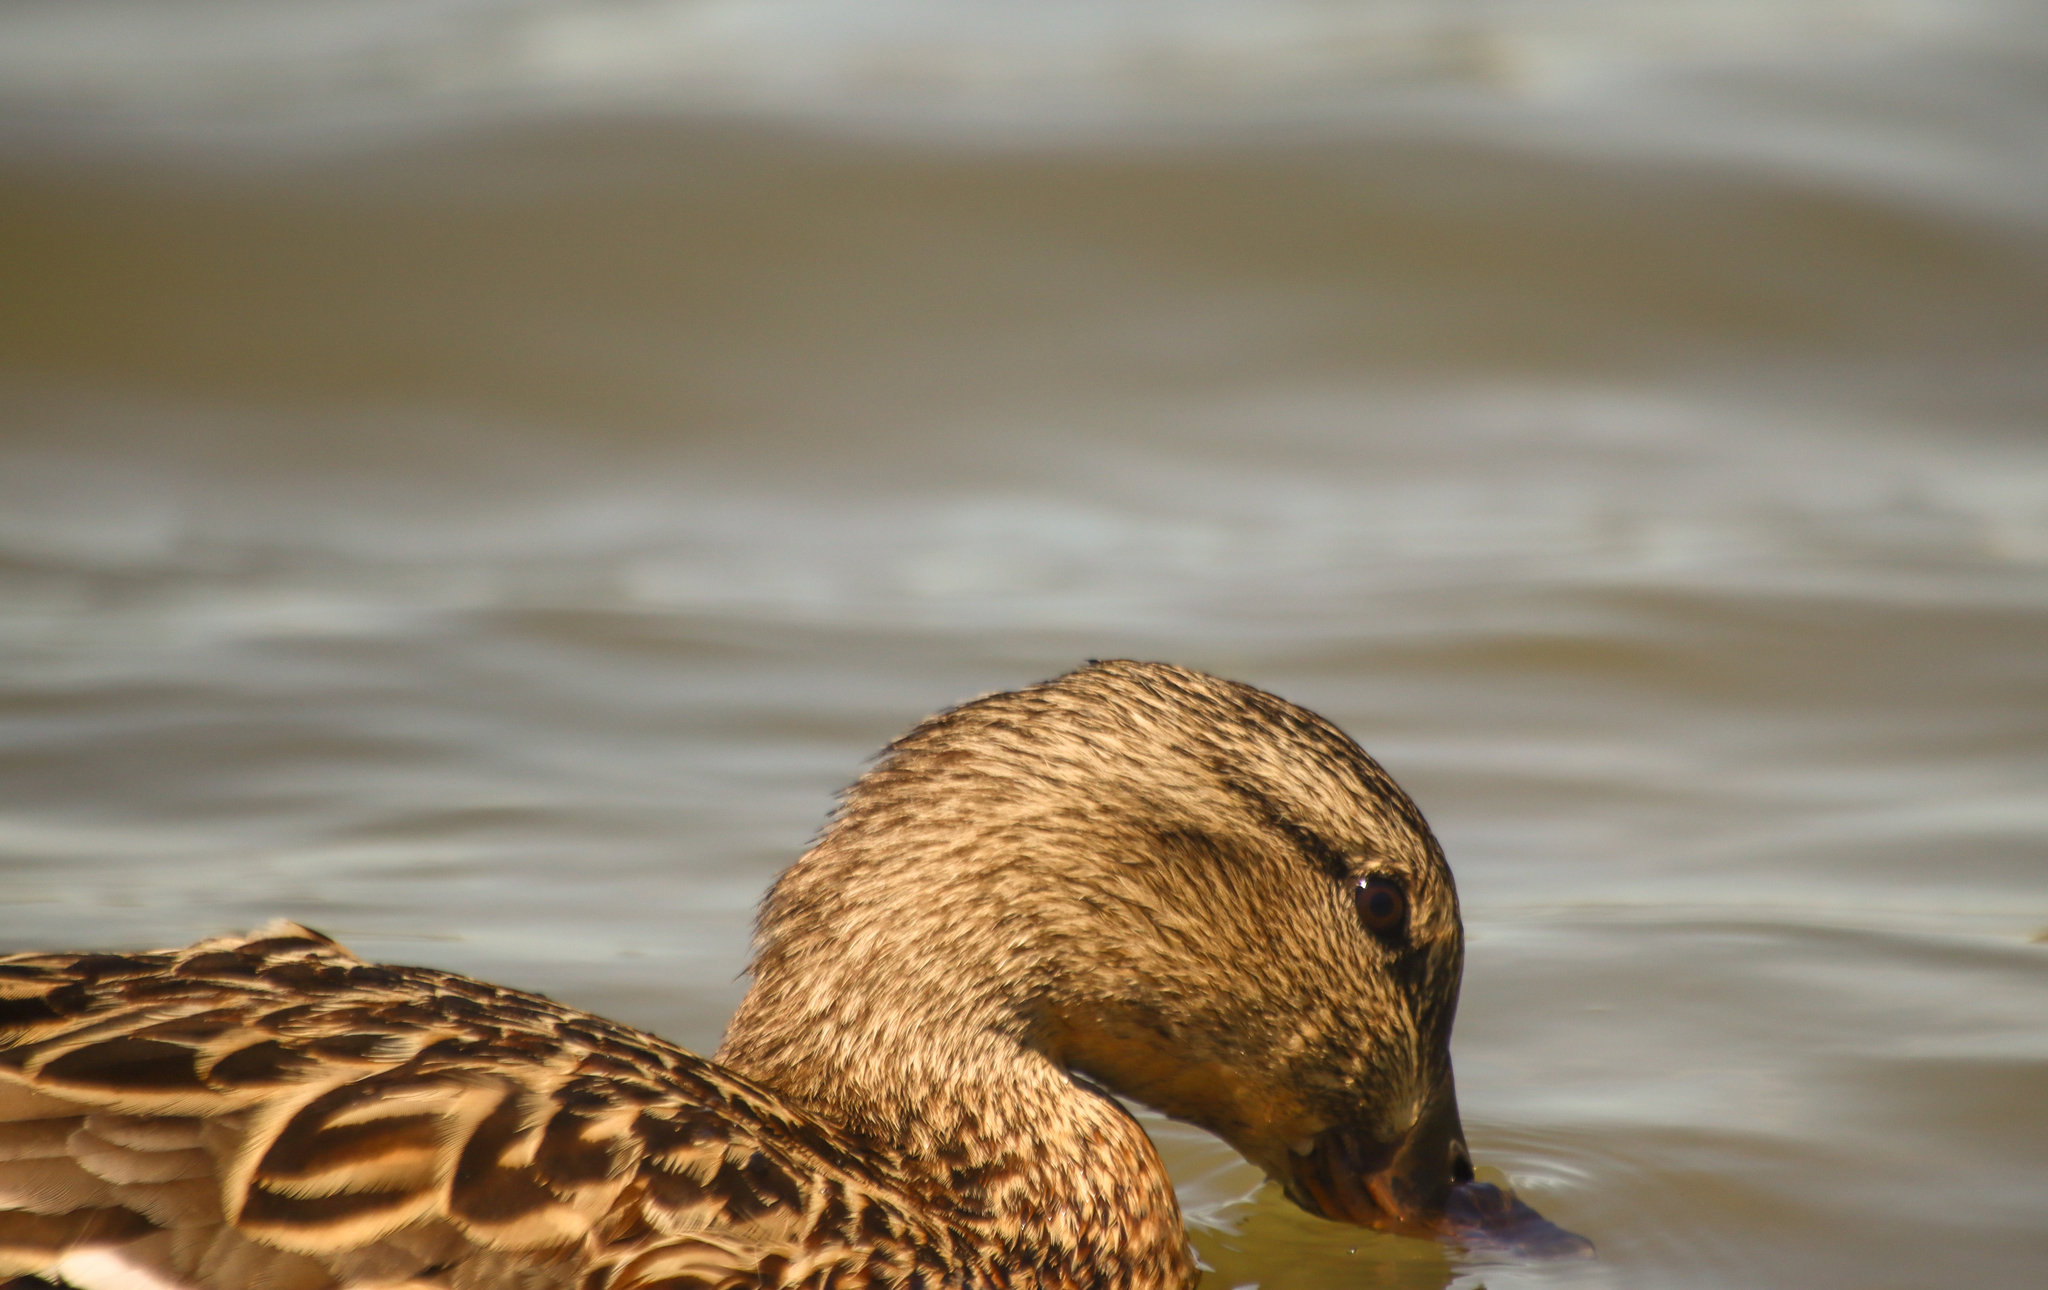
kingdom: Animalia
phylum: Chordata
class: Aves
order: Anseriformes
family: Anatidae
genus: Anas
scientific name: Anas platyrhynchos
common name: Mallard
